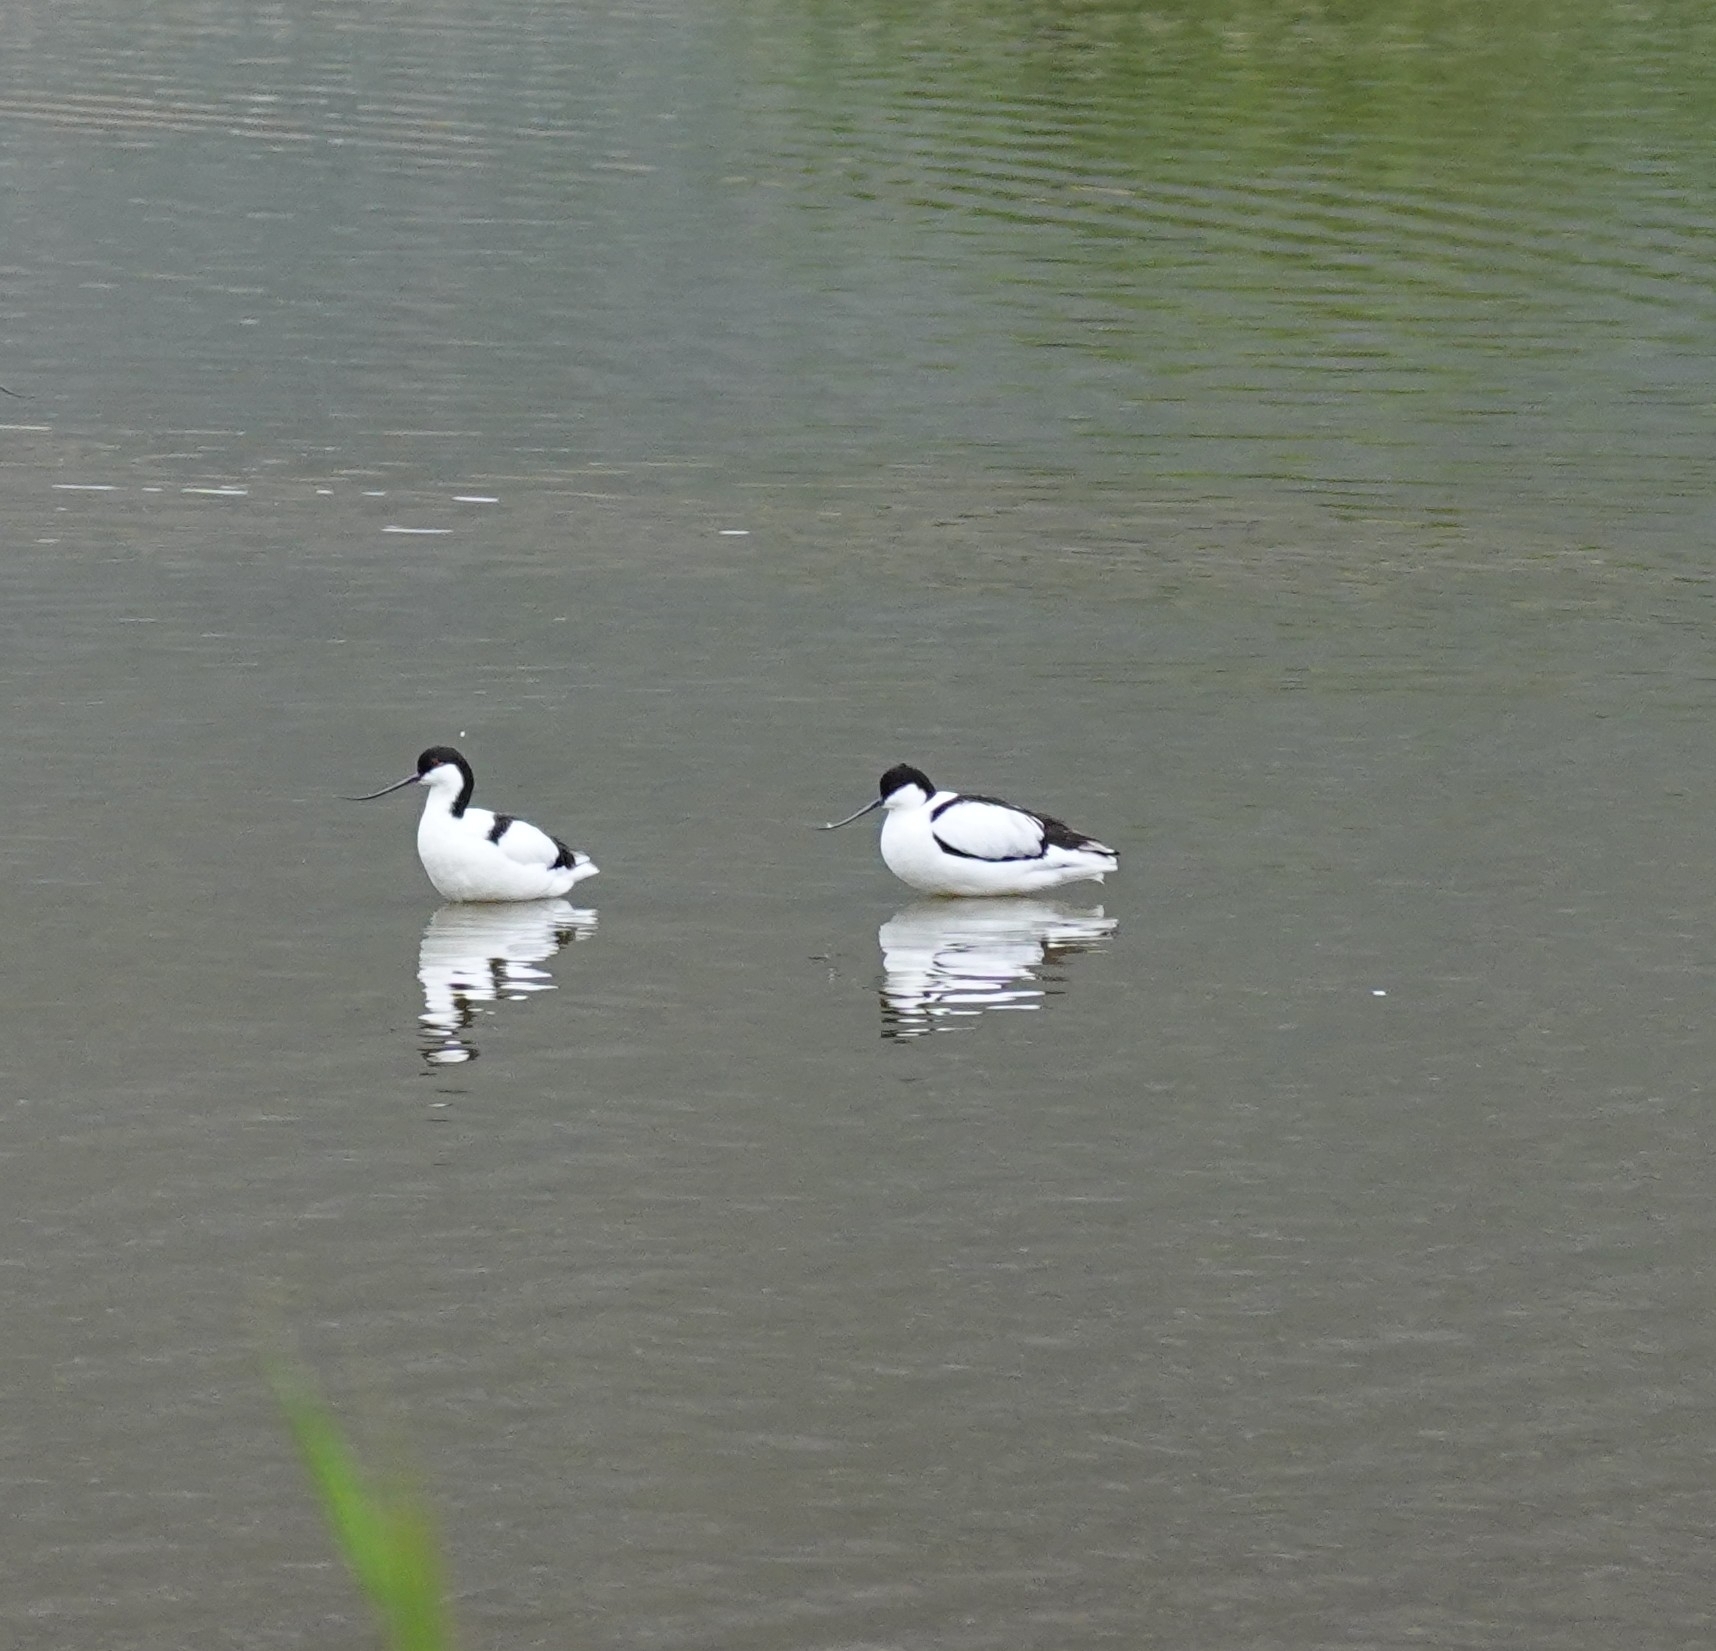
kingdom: Animalia
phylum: Chordata
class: Aves
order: Charadriiformes
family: Recurvirostridae
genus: Recurvirostra
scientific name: Recurvirostra avosetta
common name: Pied avocet
